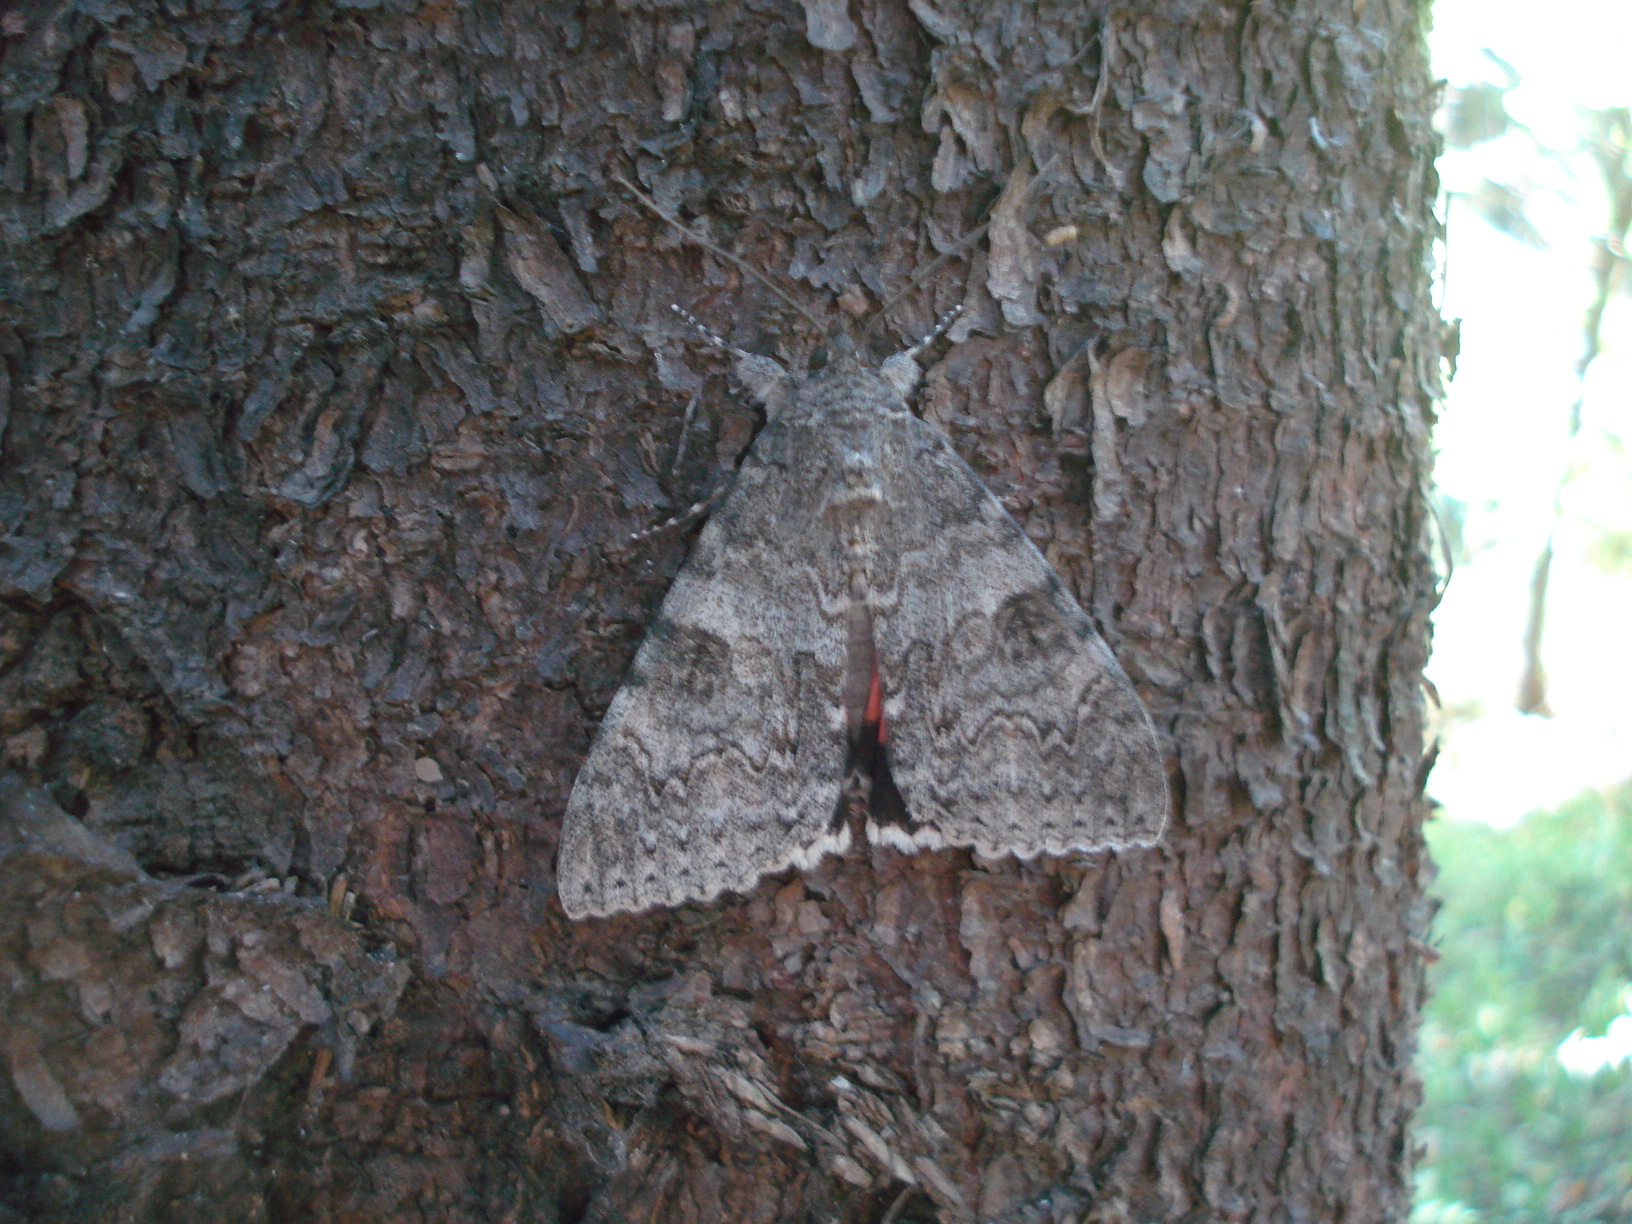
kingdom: Animalia
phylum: Arthropoda
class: Insecta
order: Lepidoptera
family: Erebidae
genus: Catocala
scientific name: Catocala nupta
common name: Red underwing
